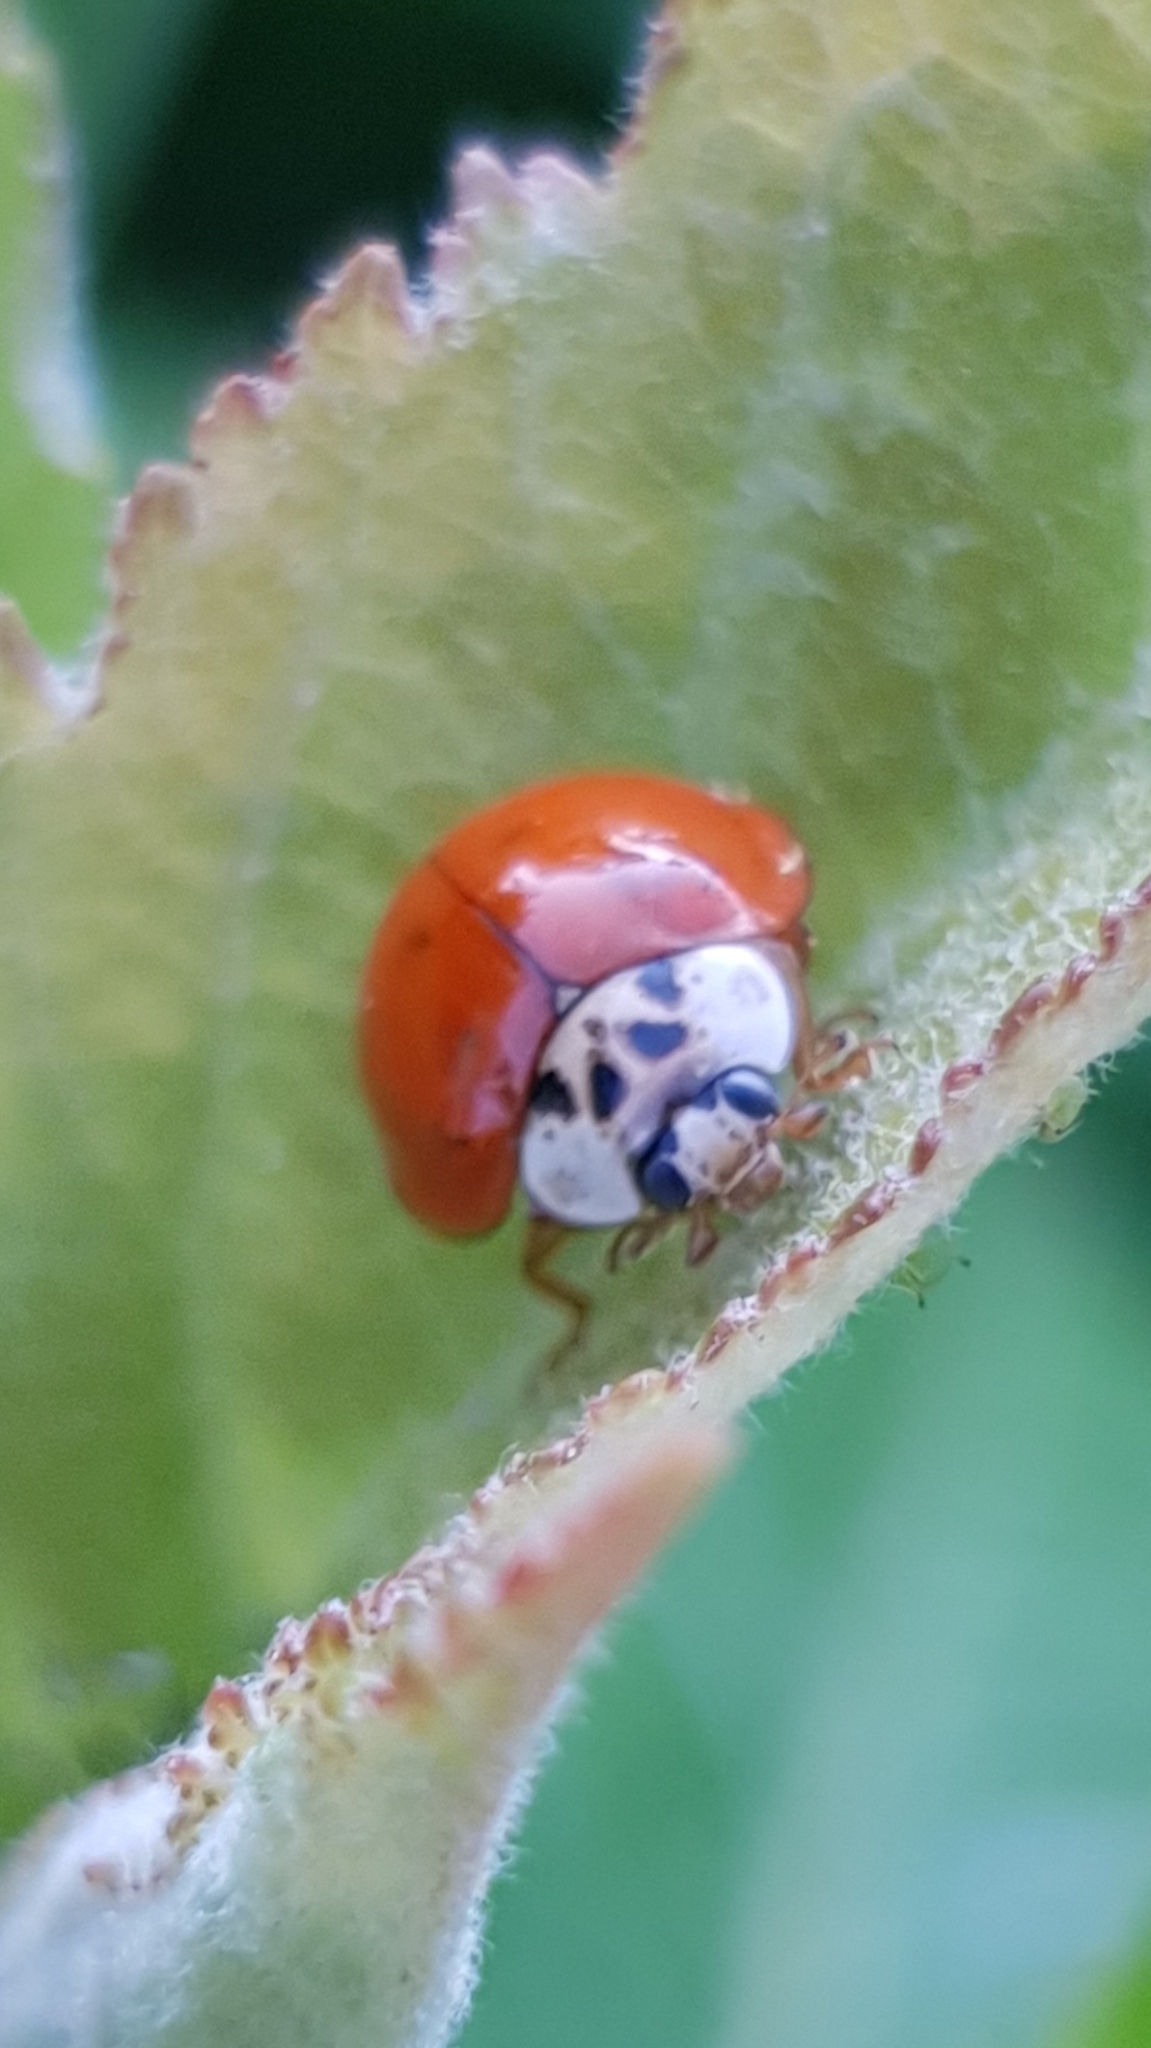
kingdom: Animalia
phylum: Arthropoda
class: Insecta
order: Coleoptera
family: Coccinellidae
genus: Harmonia
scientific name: Harmonia axyridis
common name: Harlequin ladybird
